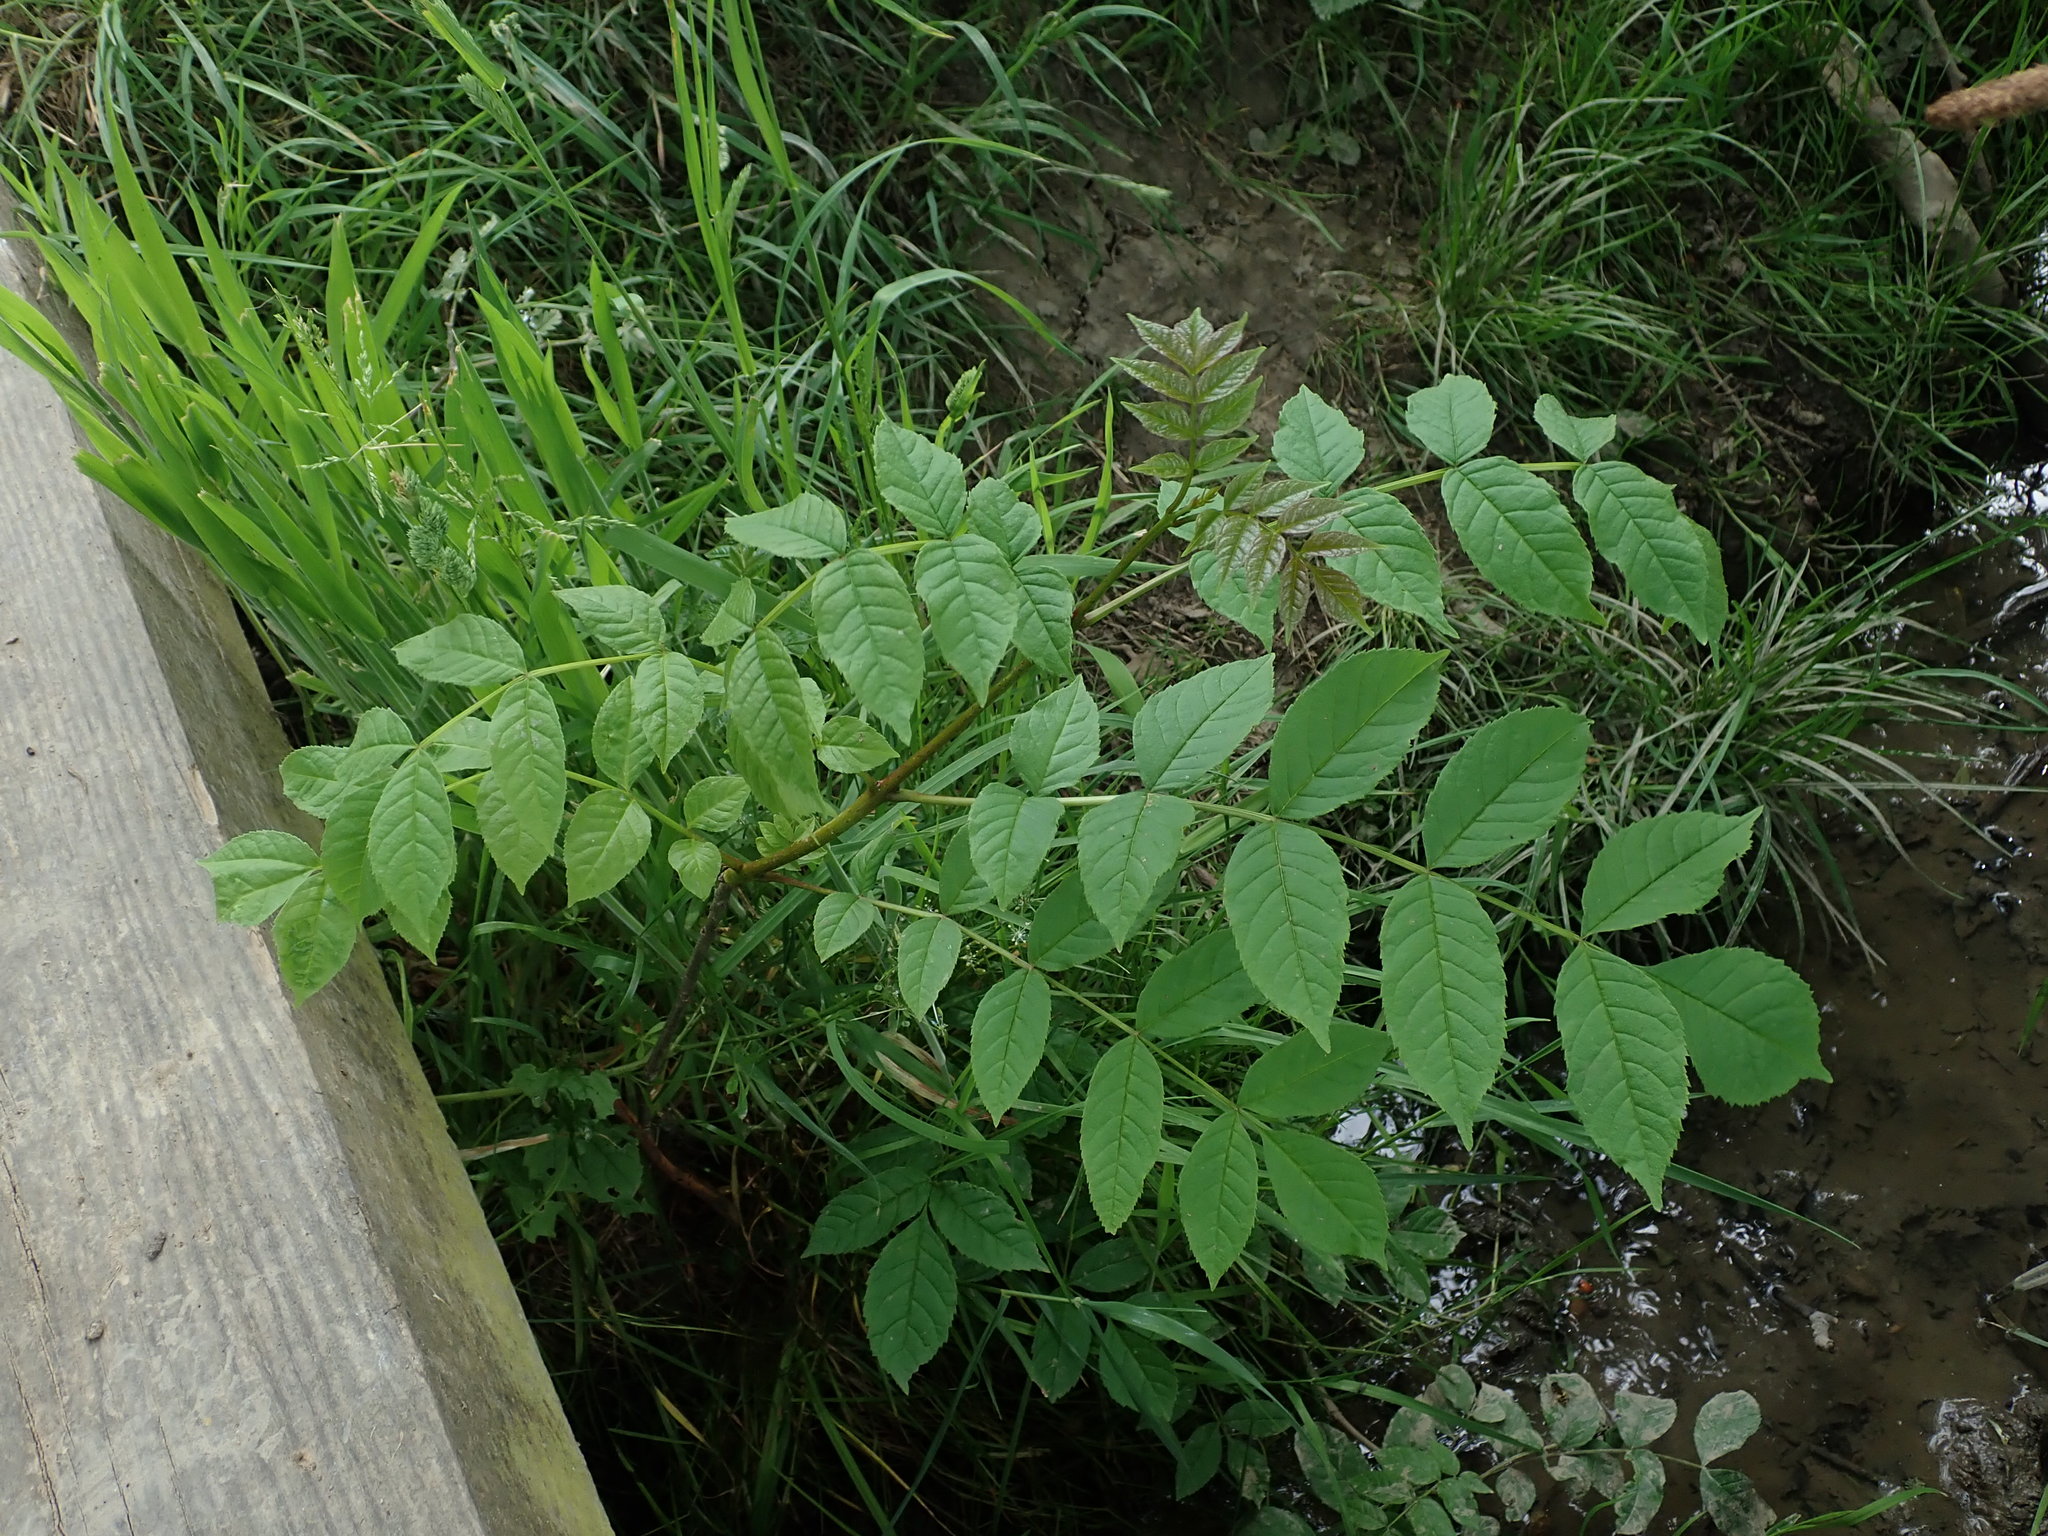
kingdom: Plantae
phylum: Tracheophyta
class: Magnoliopsida
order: Lamiales
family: Oleaceae
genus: Fraxinus
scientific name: Fraxinus excelsior
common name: European ash
